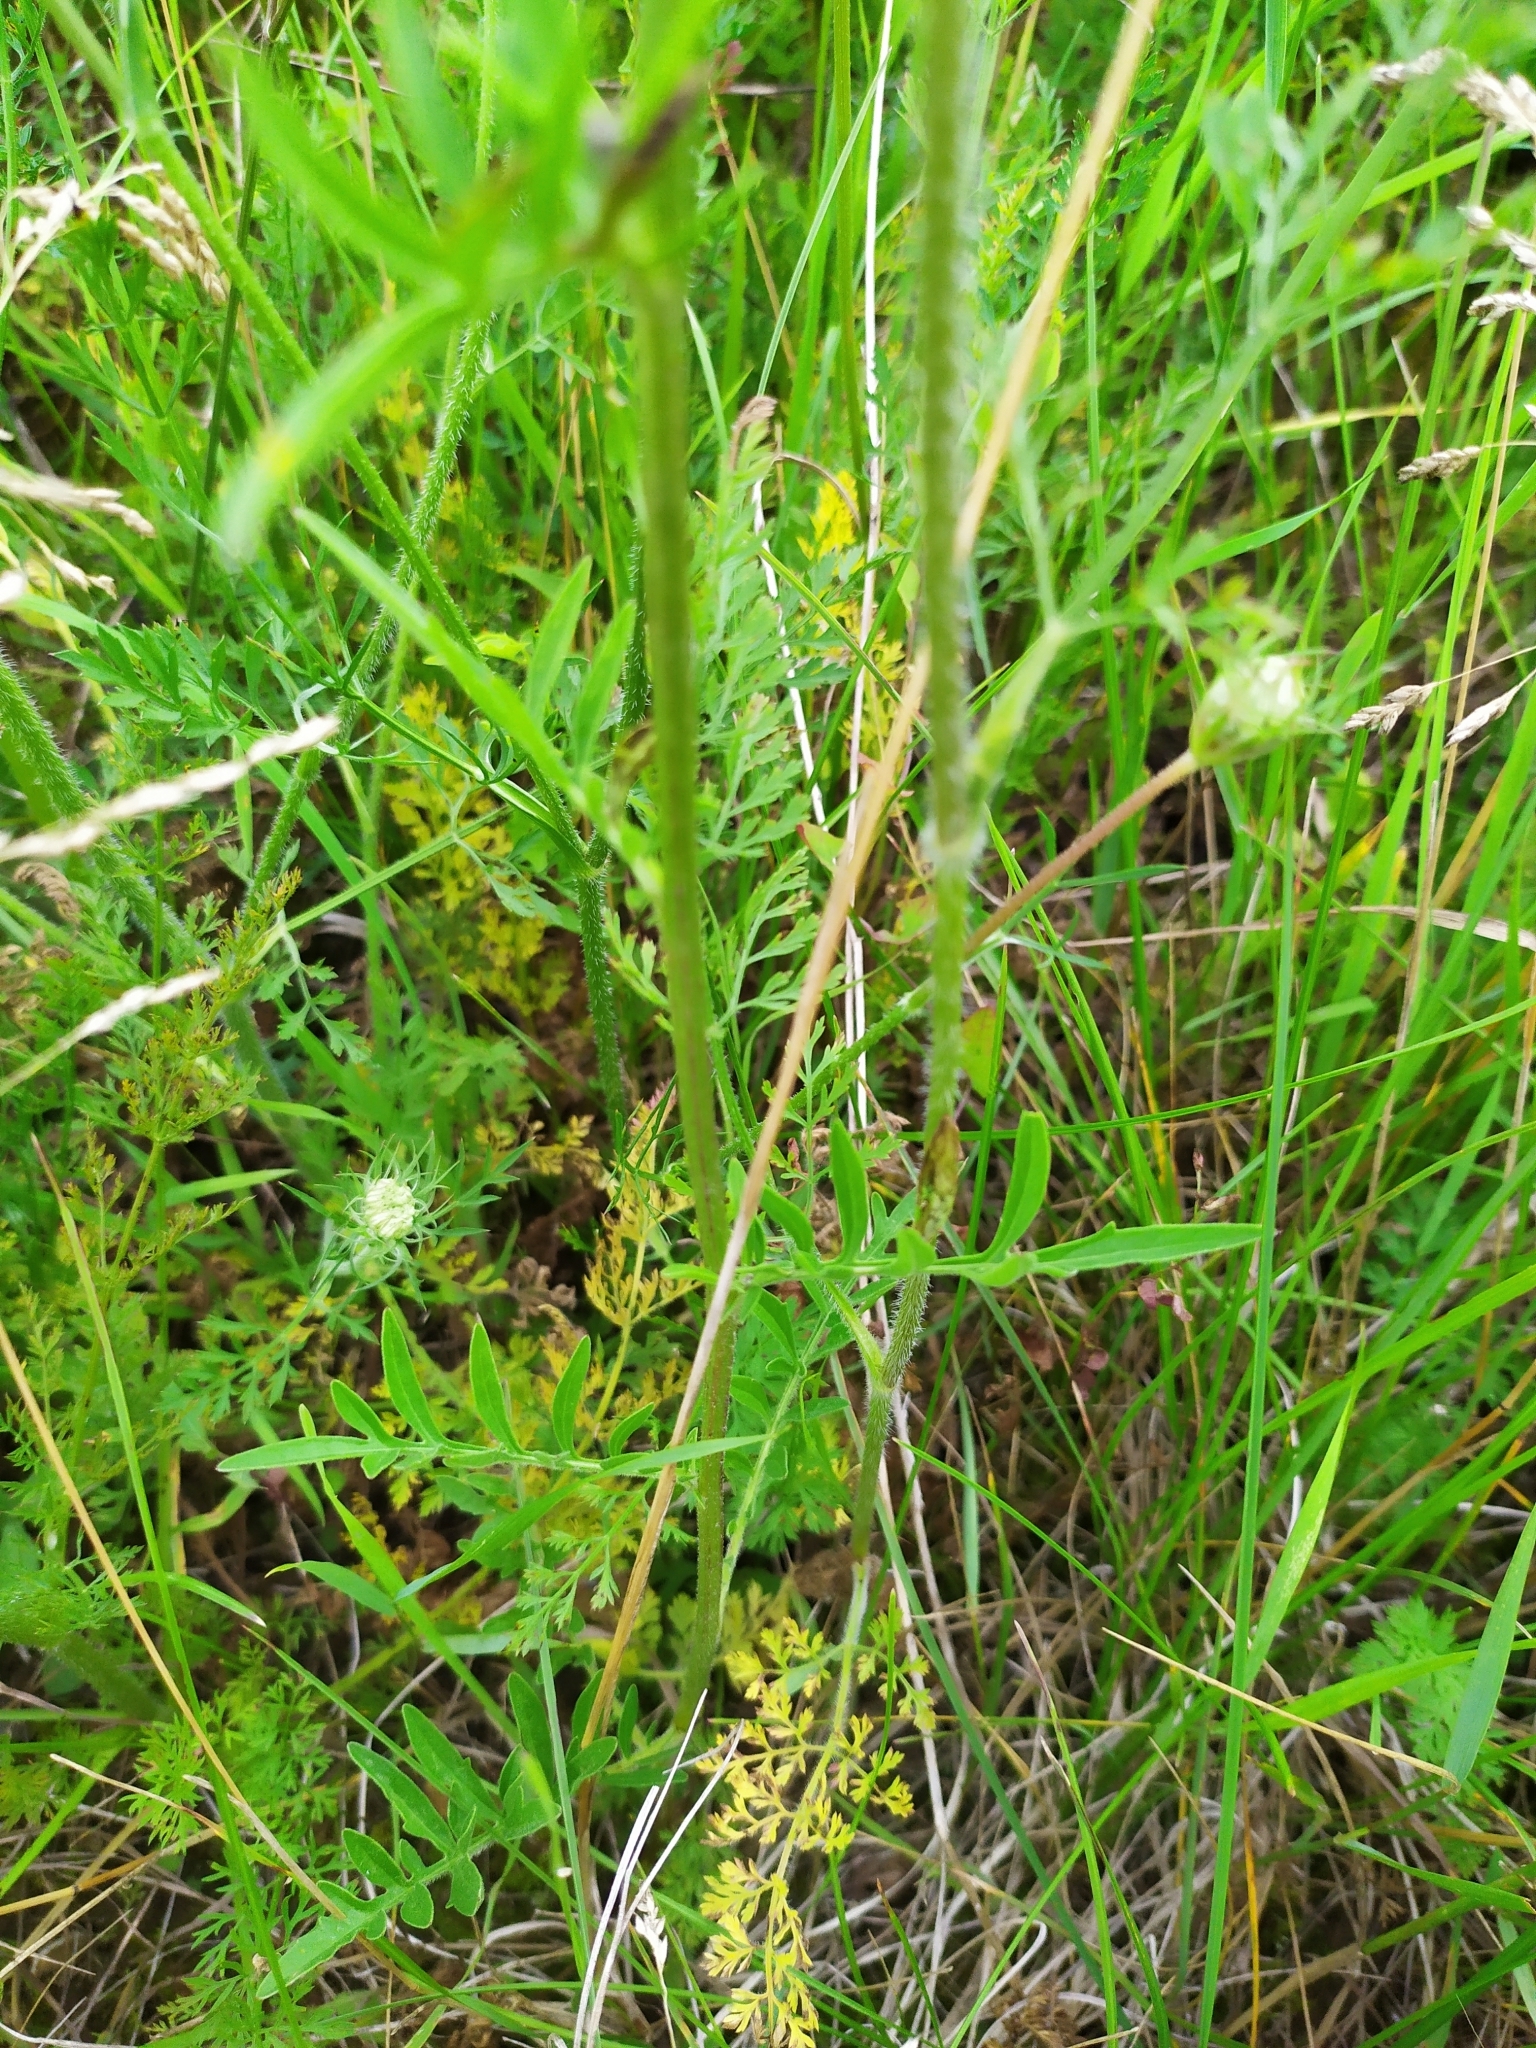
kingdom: Plantae
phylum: Tracheophyta
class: Magnoliopsida
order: Asterales
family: Asteraceae
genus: Centaurea
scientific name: Centaurea scabiosa
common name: Greater knapweed
